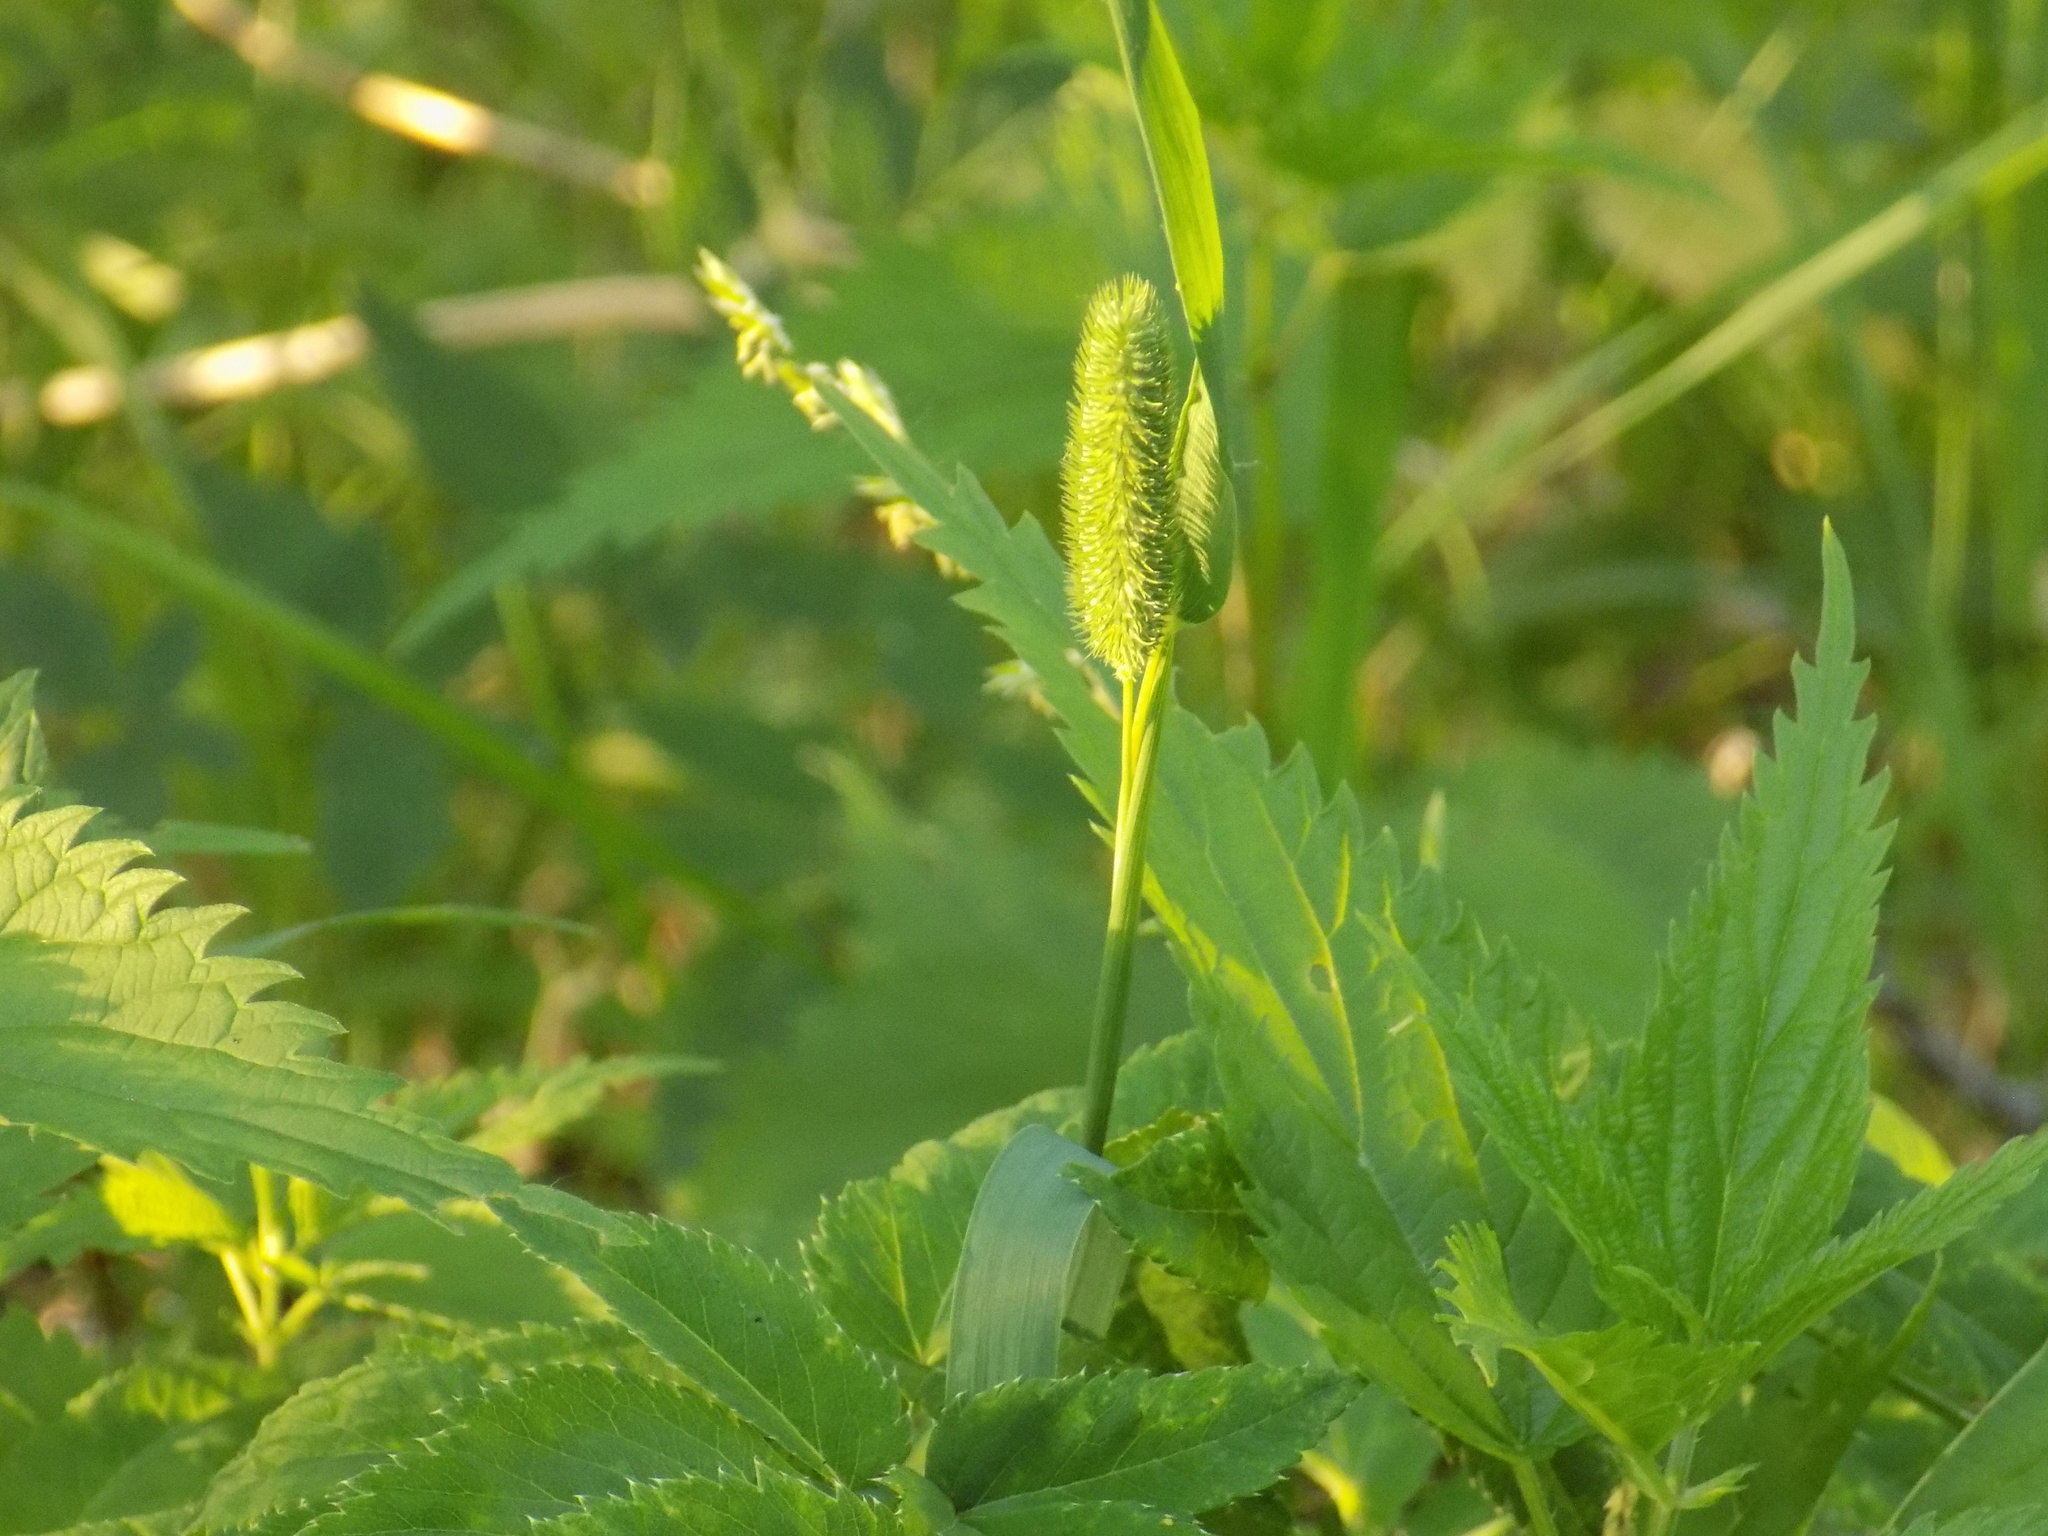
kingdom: Plantae
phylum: Tracheophyta
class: Liliopsida
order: Poales
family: Poaceae
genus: Phleum
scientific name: Phleum pratense
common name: Timothy grass
